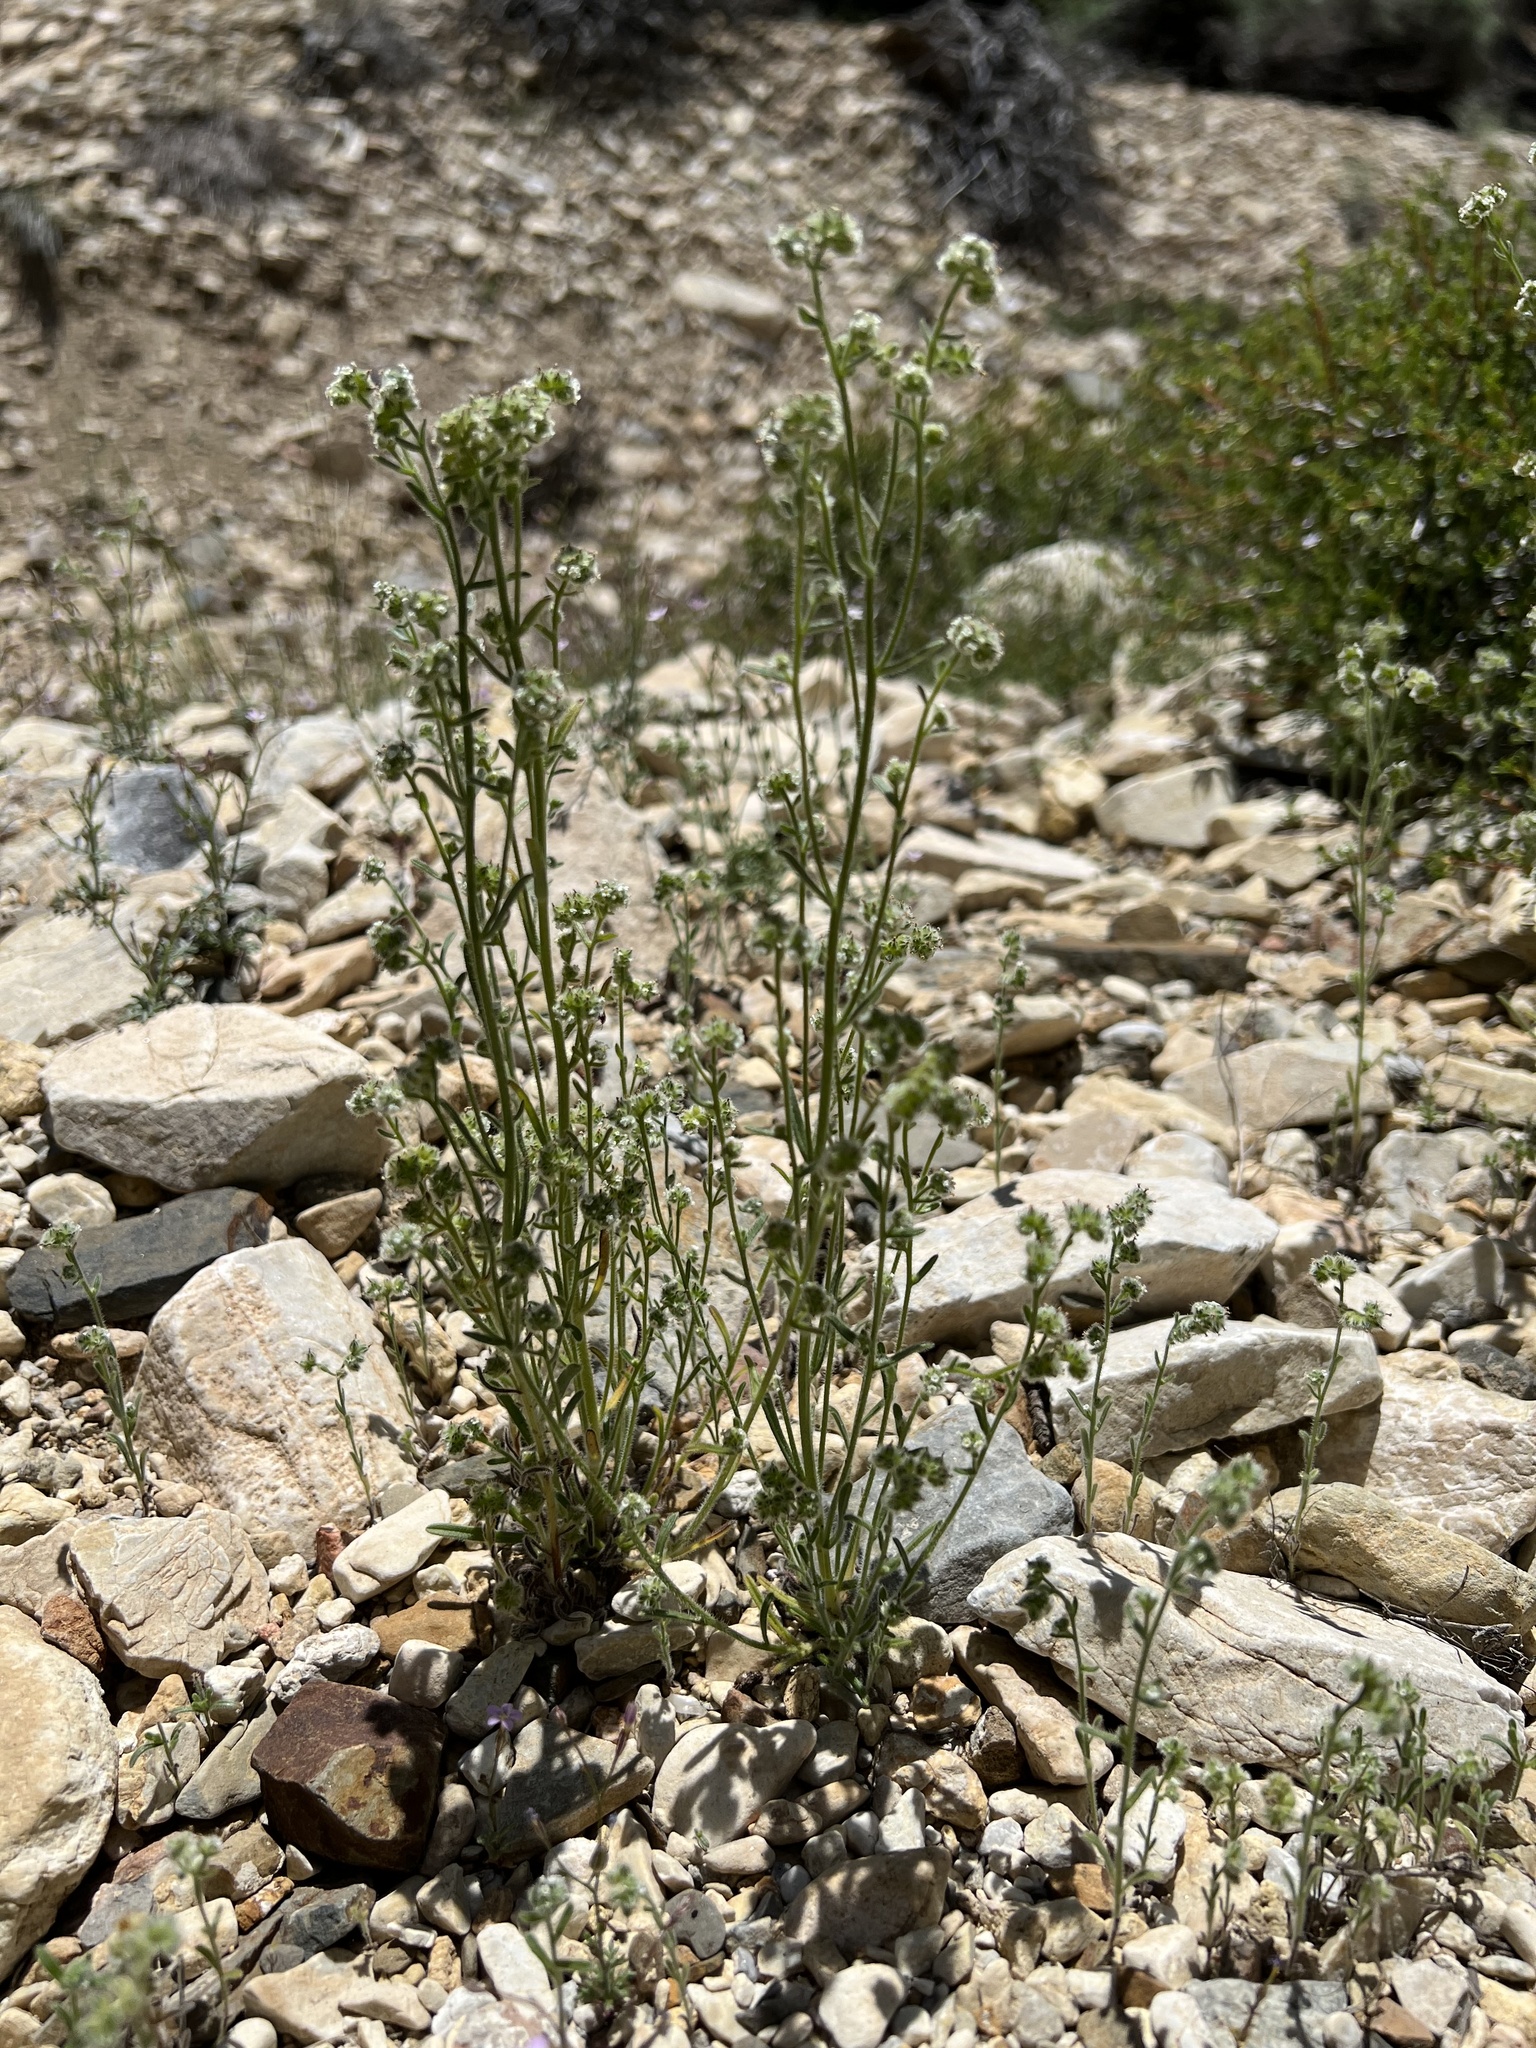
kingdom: Plantae
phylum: Tracheophyta
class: Magnoliopsida
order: Boraginales
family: Boraginaceae
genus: Cryptantha
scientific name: Cryptantha gracilis
